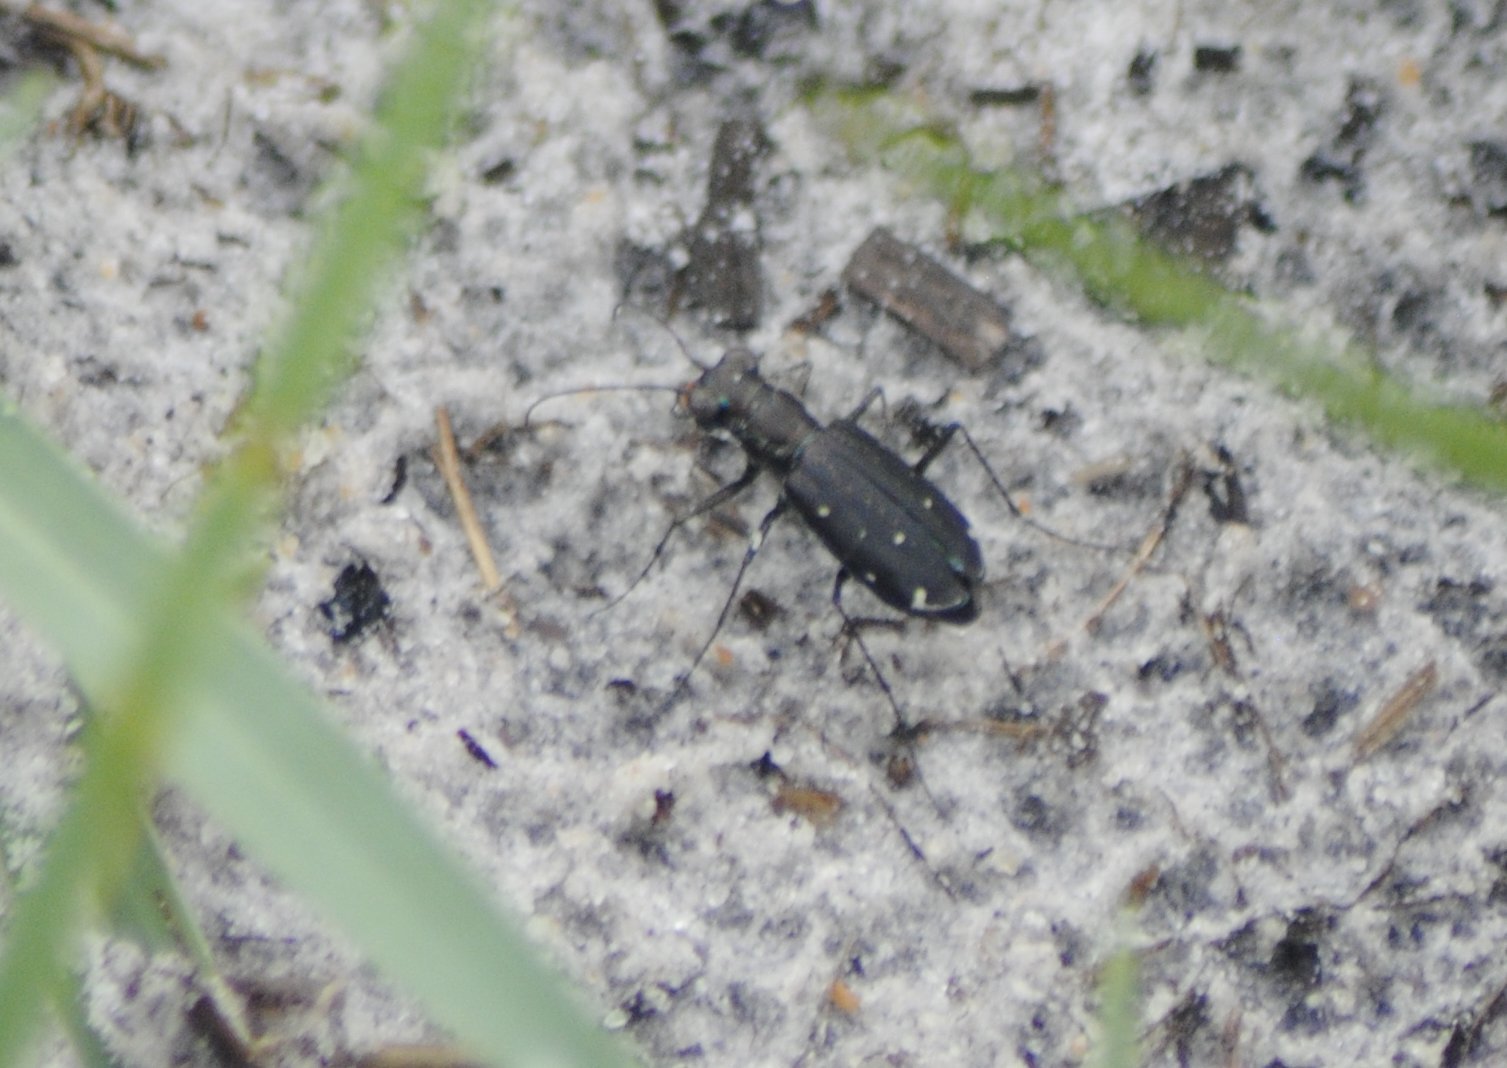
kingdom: Animalia
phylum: Arthropoda
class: Insecta
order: Coleoptera
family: Carabidae
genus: Cicindela
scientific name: Cicindela punctulata
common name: Punctured tiger beetle
